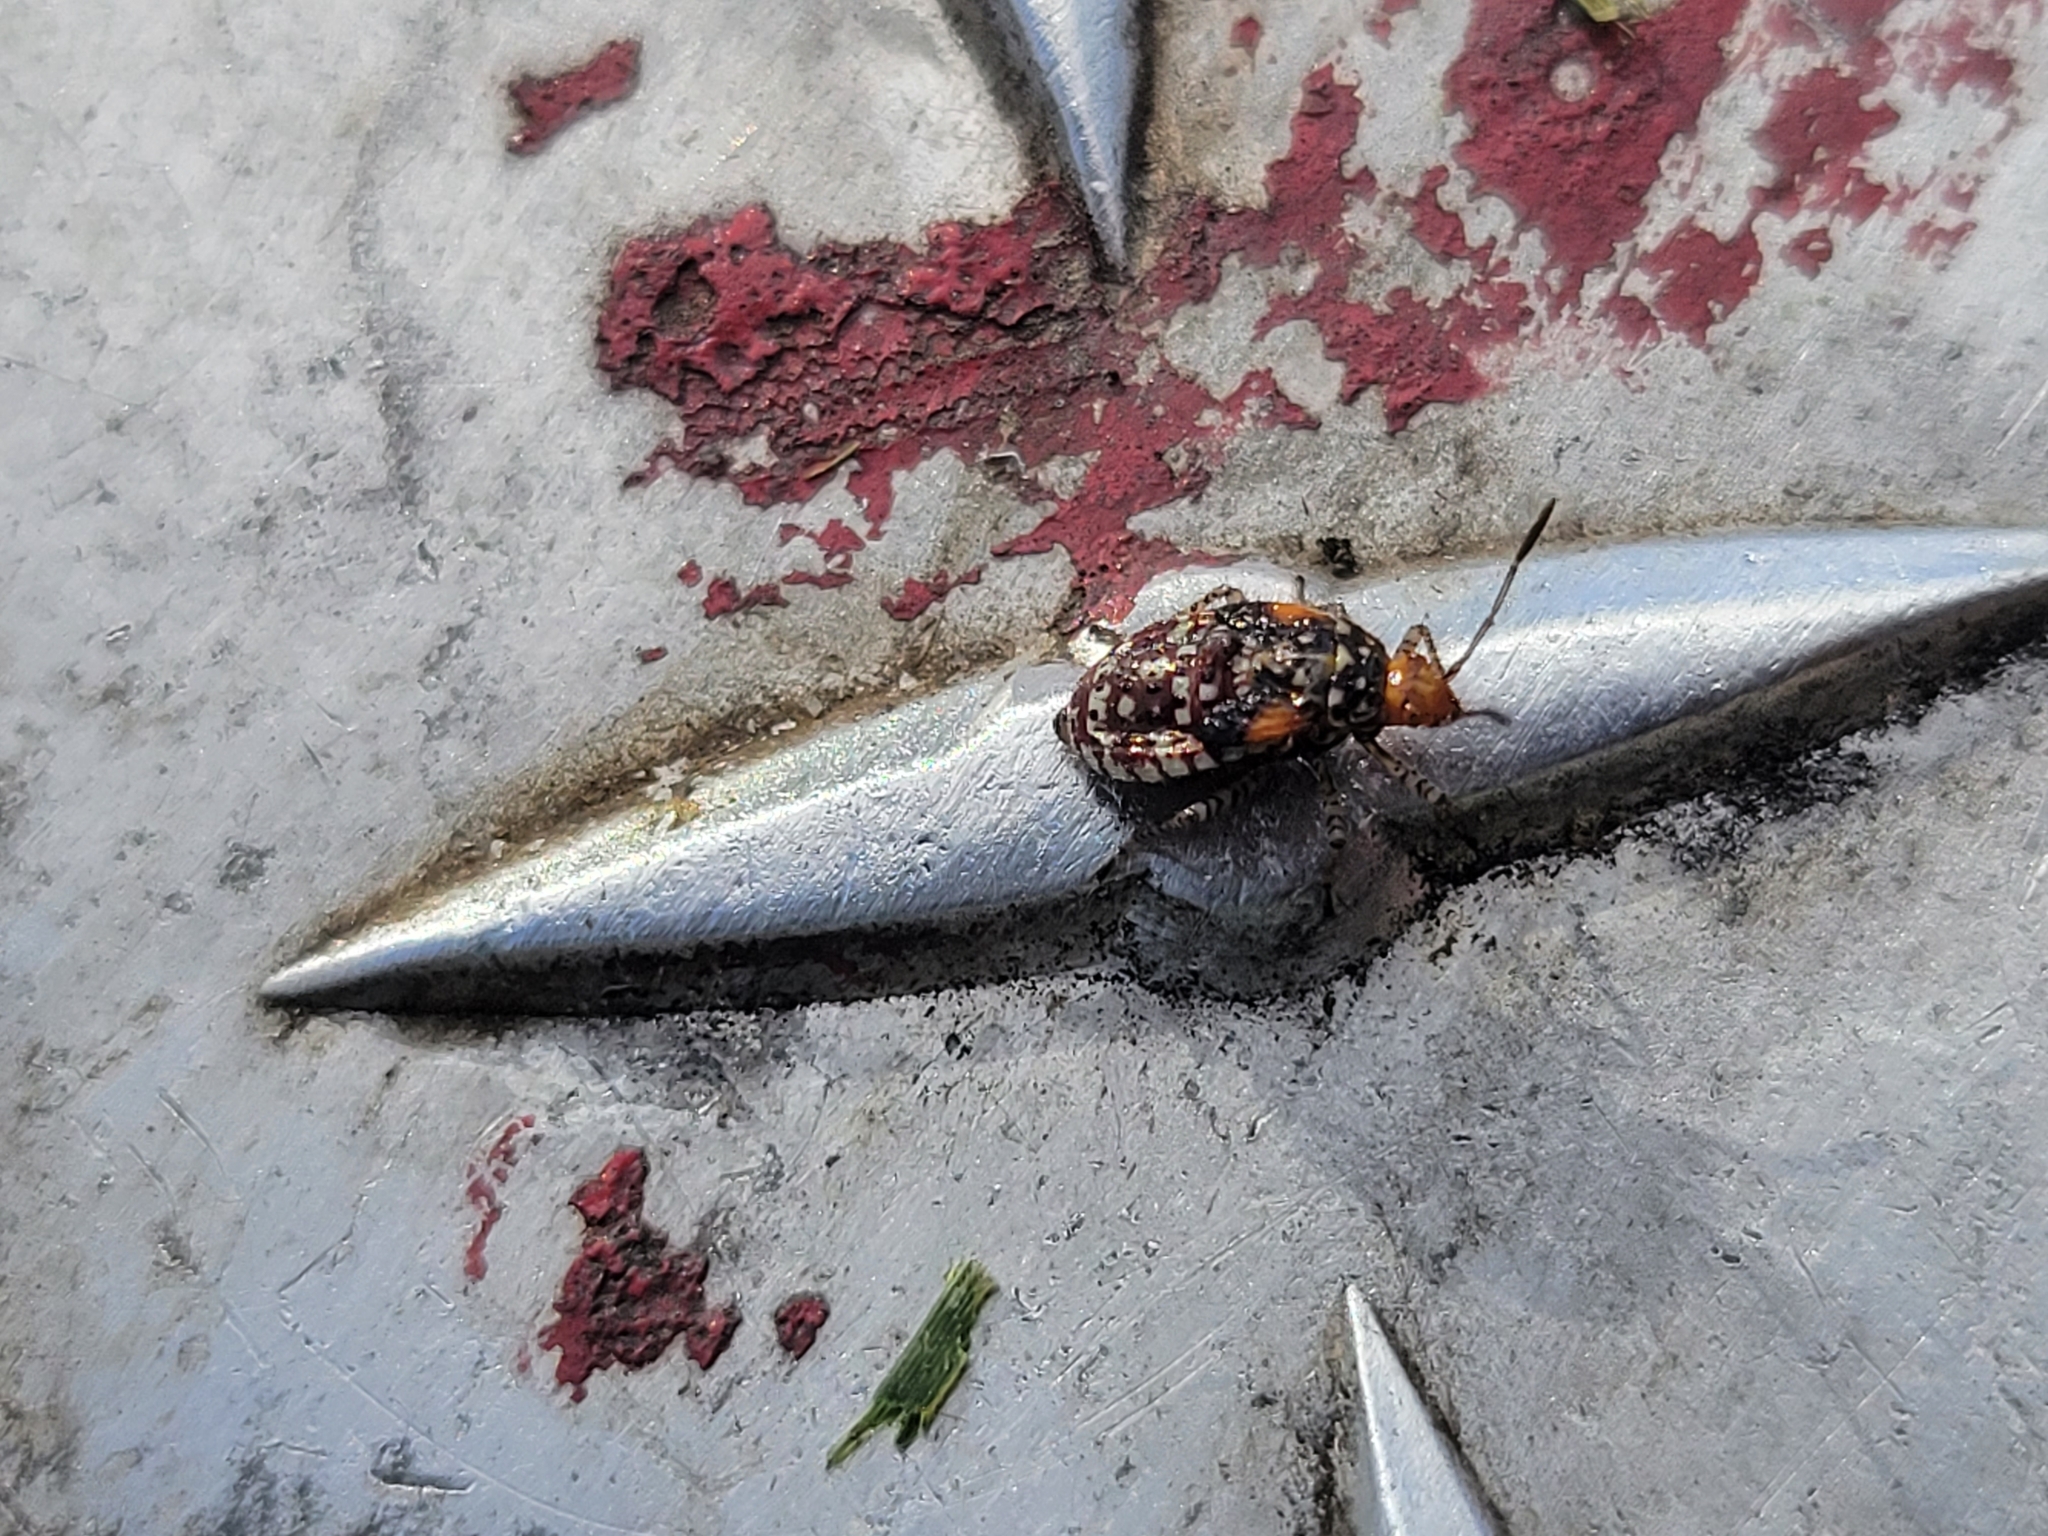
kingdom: Animalia
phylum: Arthropoda
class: Insecta
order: Hemiptera
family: Rhopalidae
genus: Niesthrea
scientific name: Niesthrea louisianica
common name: Scentless plant bug
